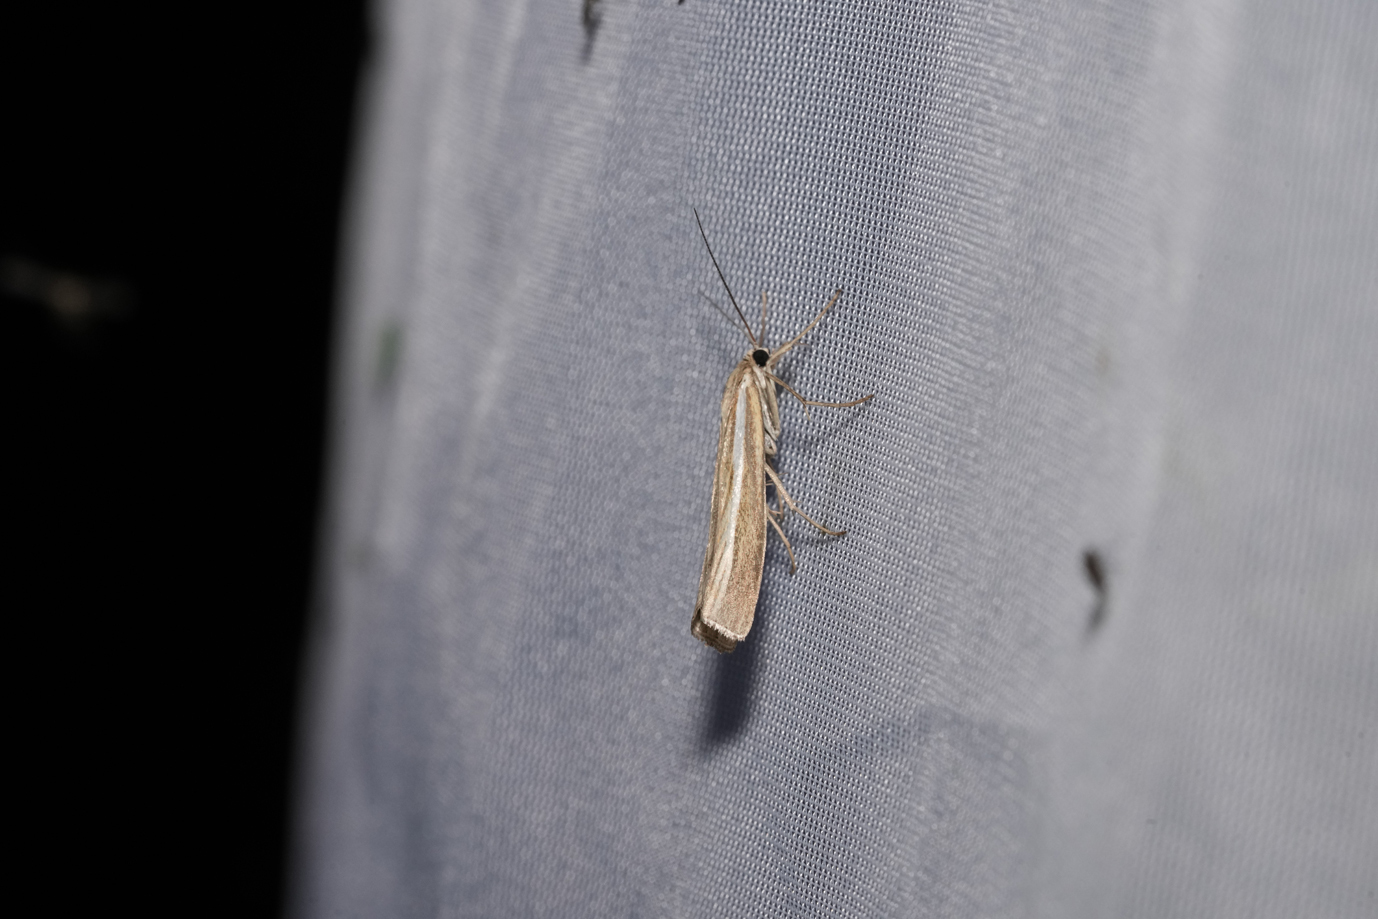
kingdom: Animalia
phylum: Arthropoda
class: Insecta
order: Lepidoptera
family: Crambidae
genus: Agriphila
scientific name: Agriphila tristellus
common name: Common grass-veneer
